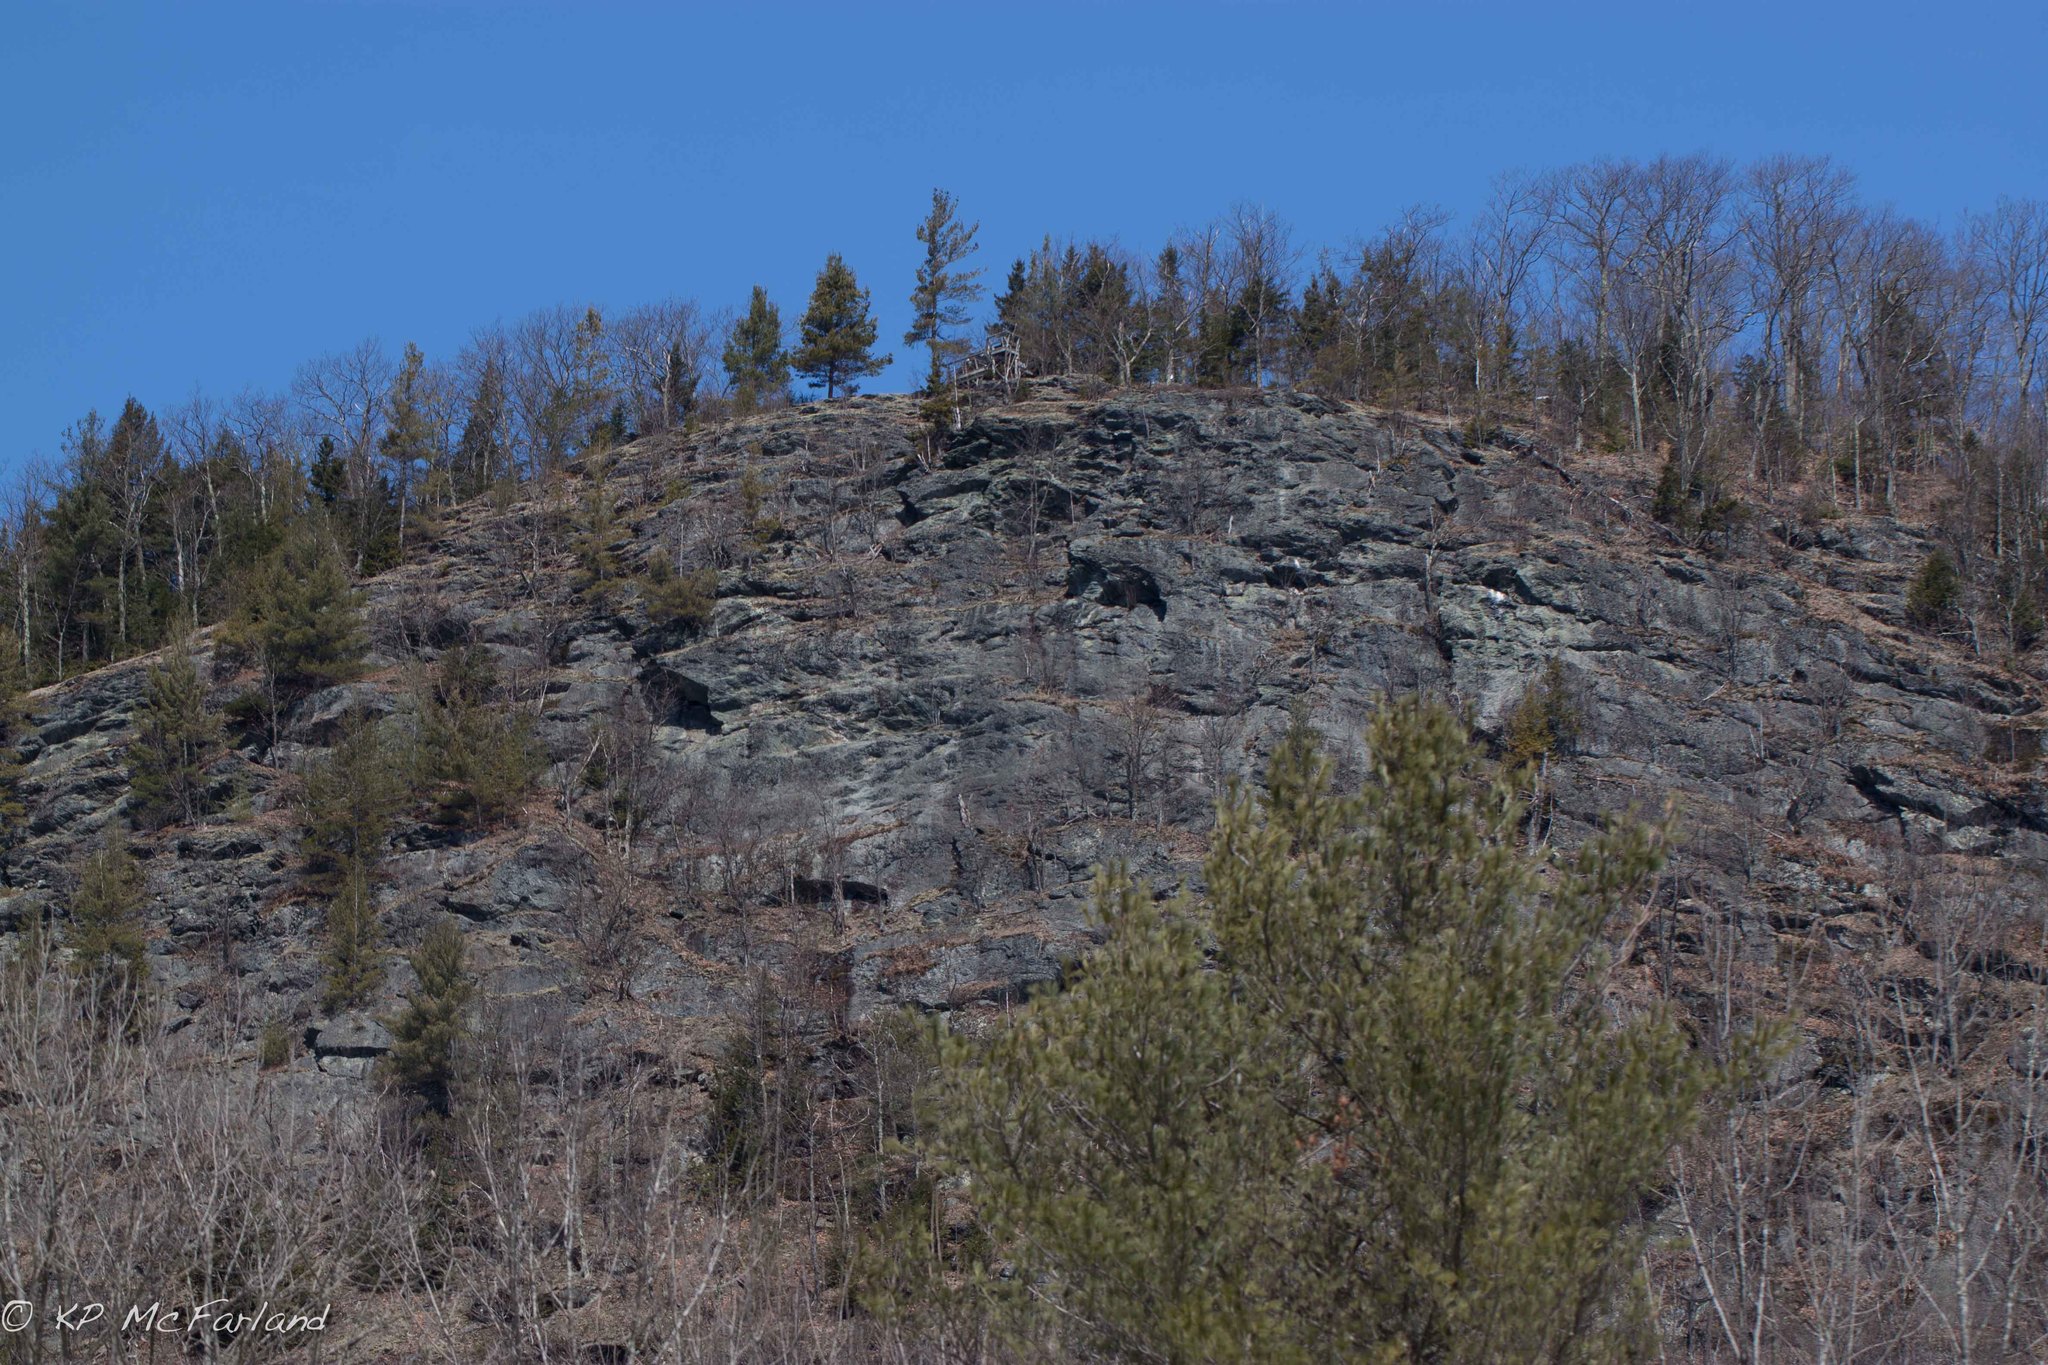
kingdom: Plantae
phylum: Tracheophyta
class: Pinopsida
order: Pinales
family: Pinaceae
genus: Pinus
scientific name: Pinus resinosa
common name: Norway pine
